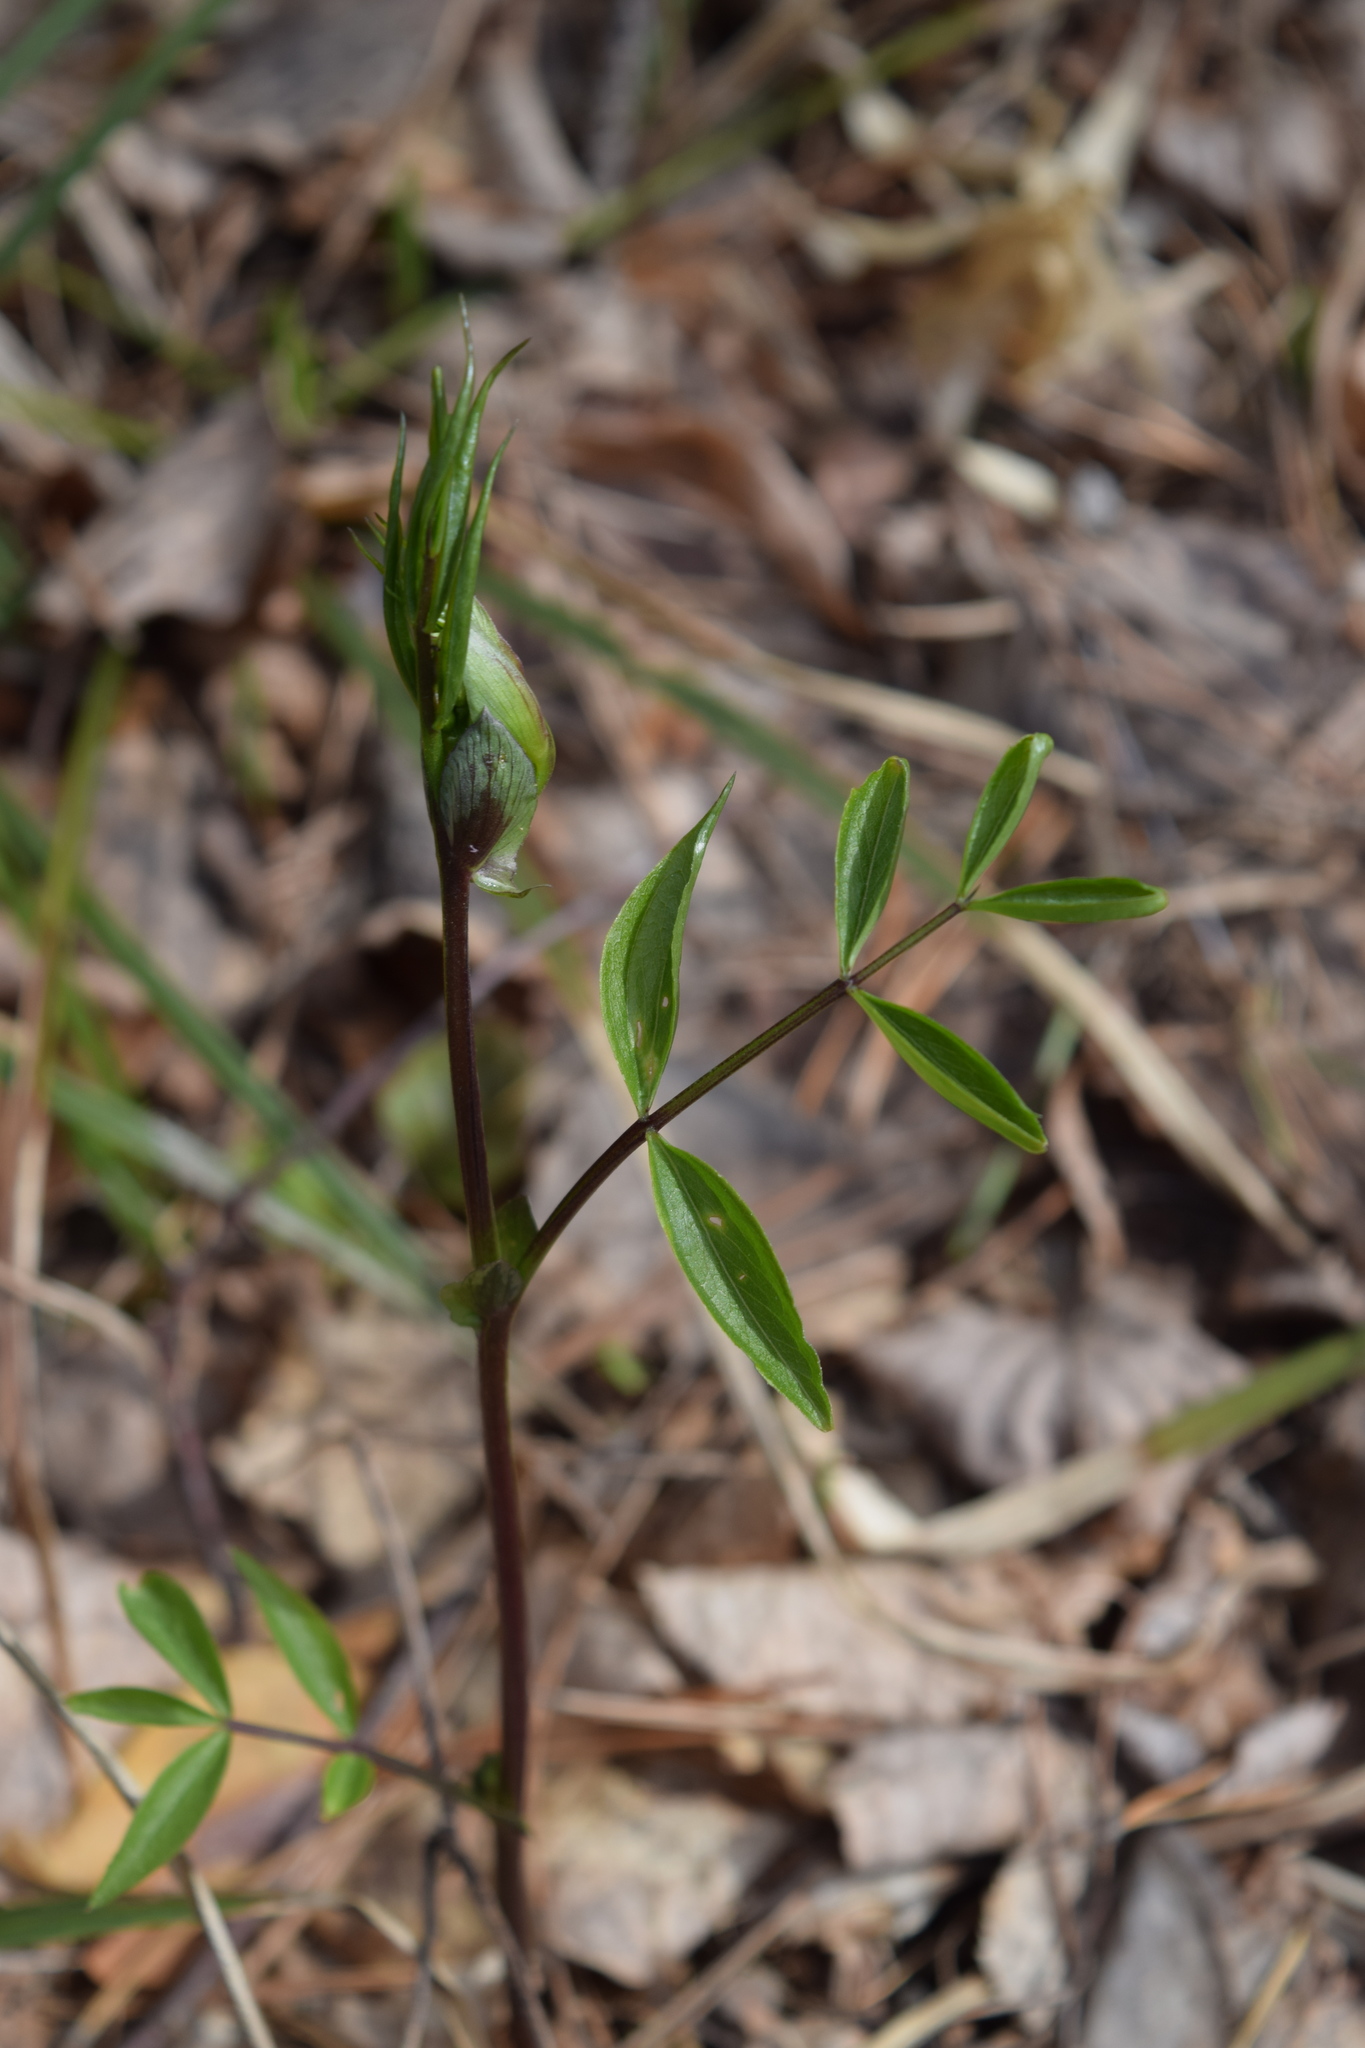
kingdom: Plantae
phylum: Tracheophyta
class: Magnoliopsida
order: Fabales
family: Fabaceae
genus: Lathyrus
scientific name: Lathyrus vernus
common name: Spring pea
